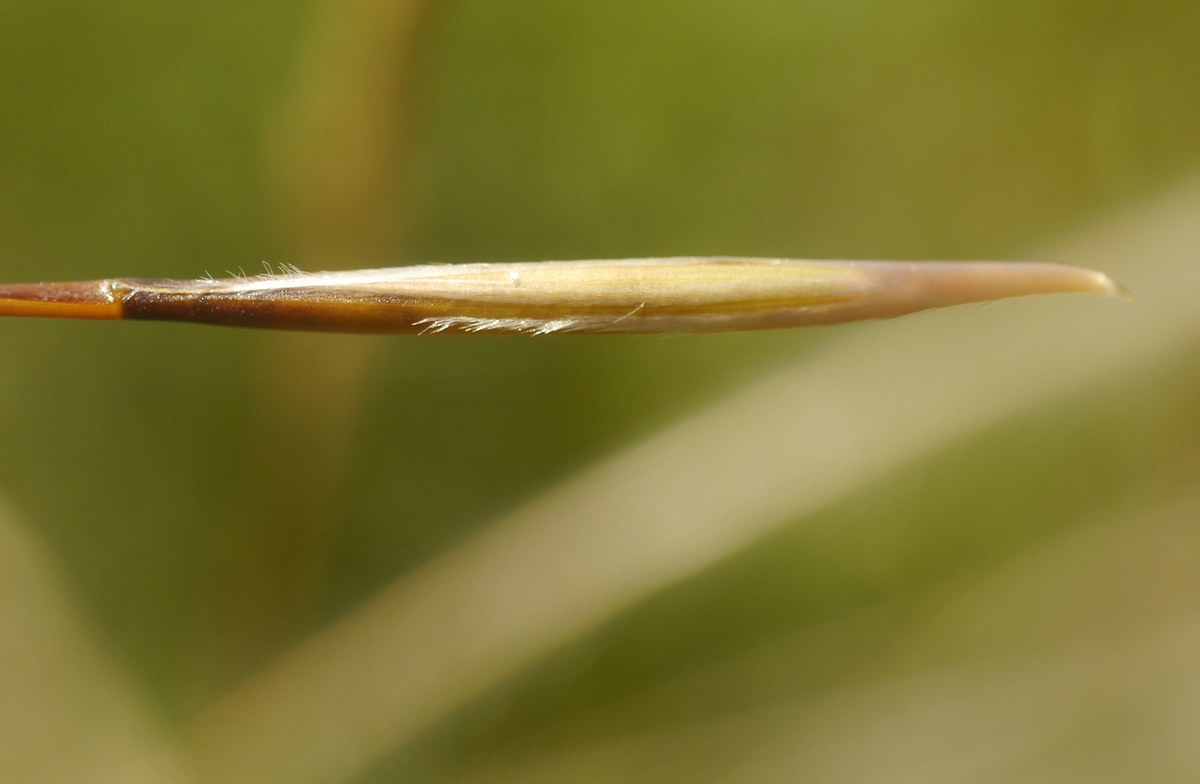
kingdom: Plantae
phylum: Tracheophyta
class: Liliopsida
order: Poales
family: Poaceae
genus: Stipa
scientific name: Stipa pulcherrima
